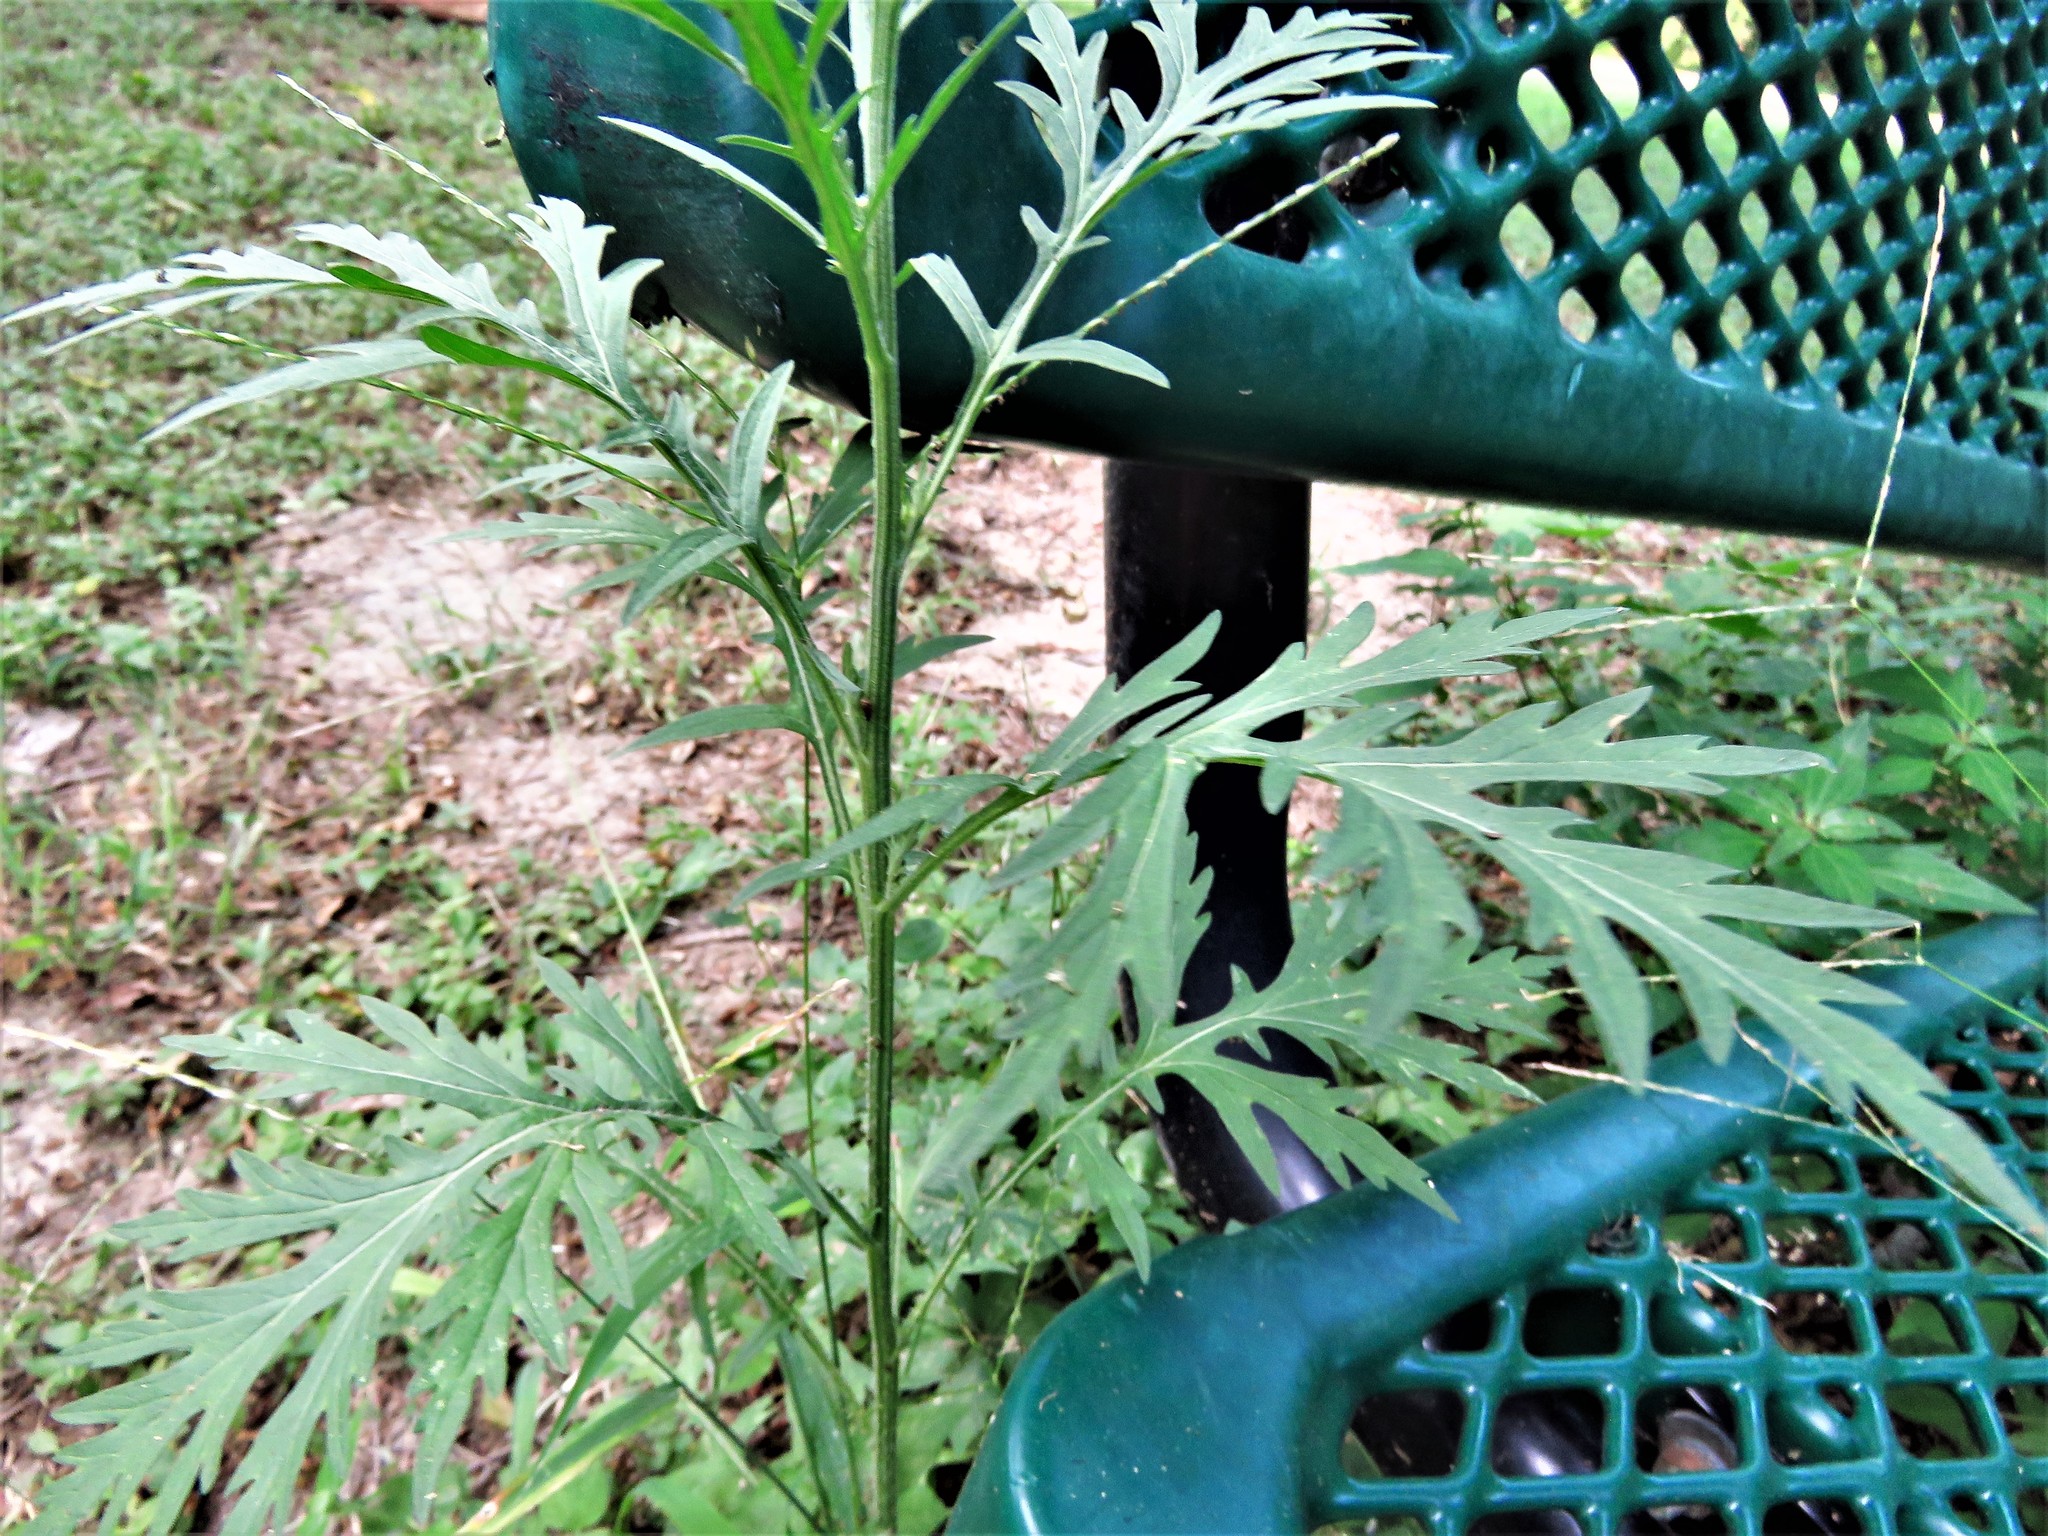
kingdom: Plantae
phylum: Tracheophyta
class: Magnoliopsida
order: Asterales
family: Asteraceae
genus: Parthenium
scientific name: Parthenium hysterophorus
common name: Santa maria feverfew
